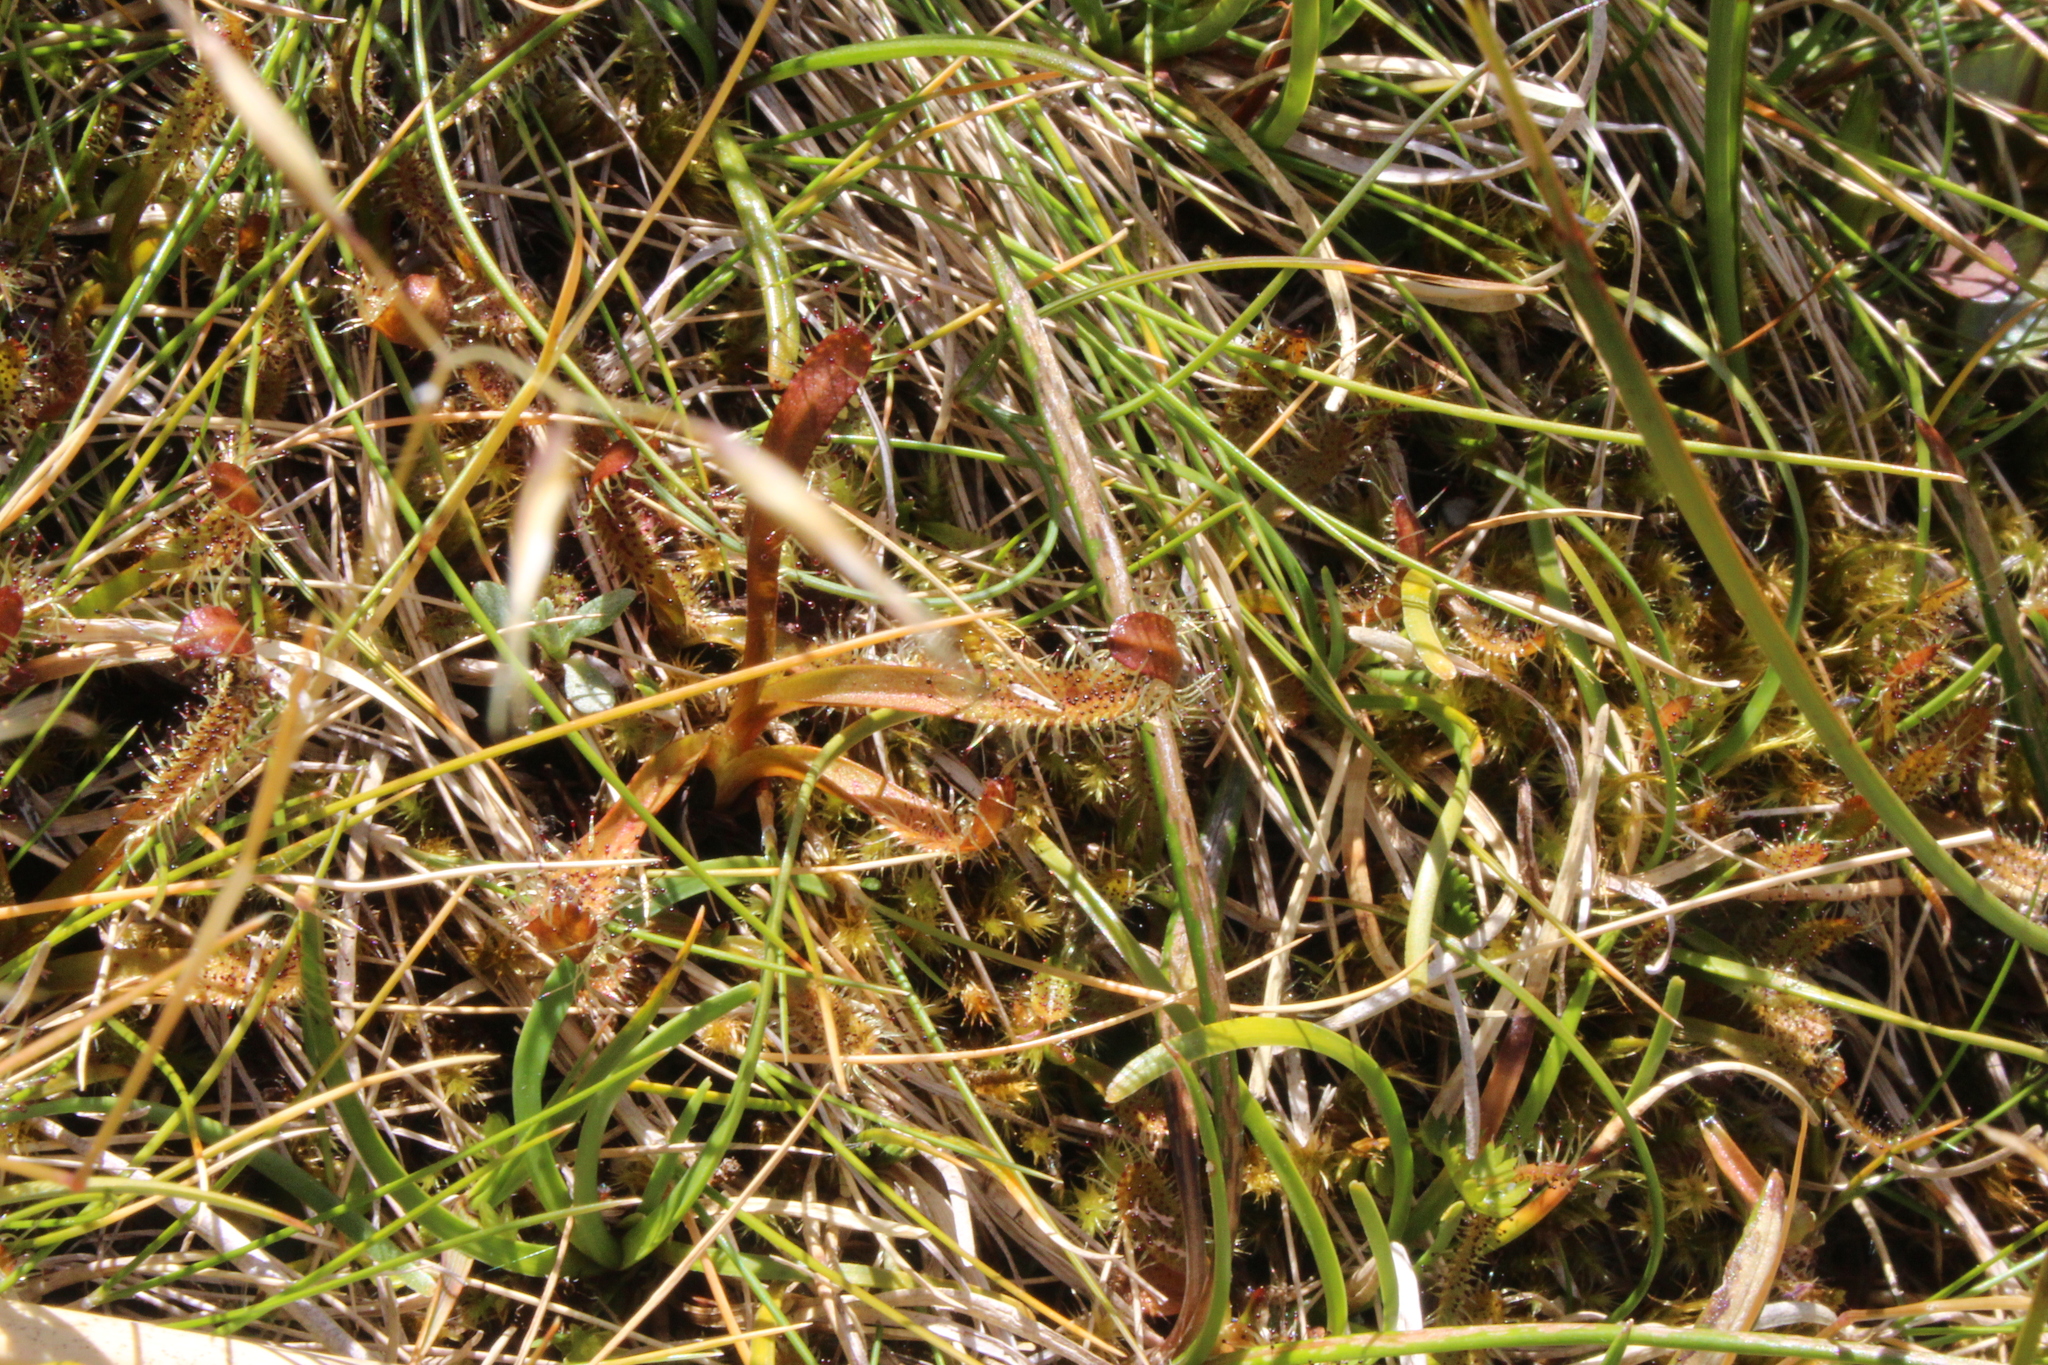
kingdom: Plantae
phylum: Tracheophyta
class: Magnoliopsida
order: Caryophyllales
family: Droseraceae
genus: Drosera
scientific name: Drosera arcturi
